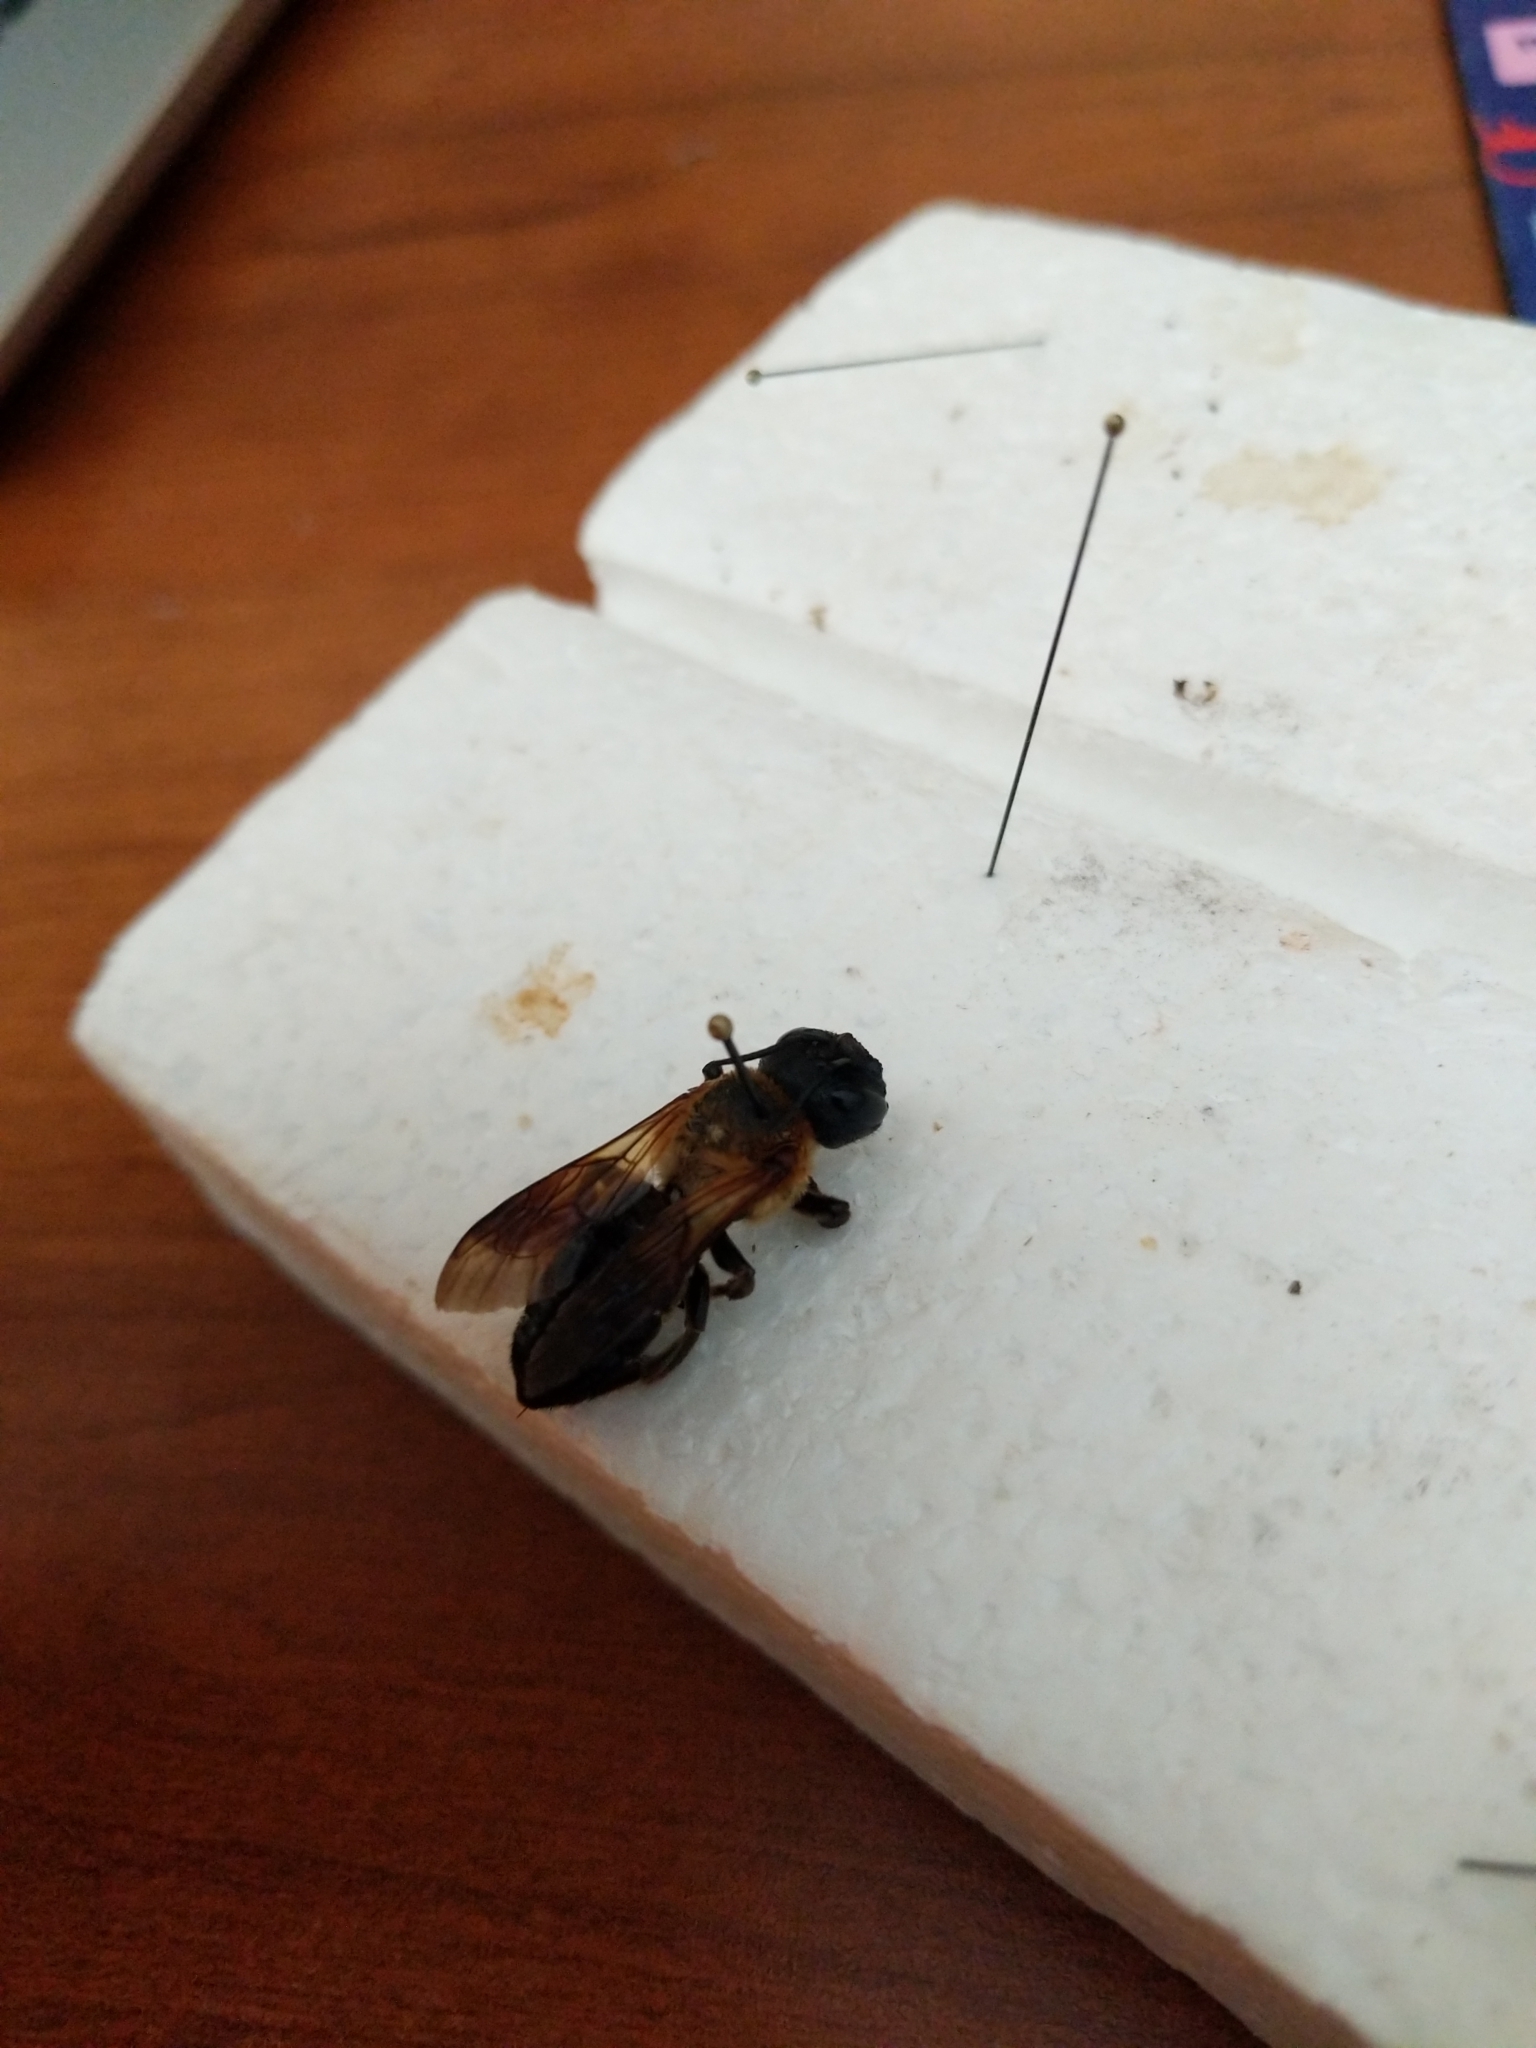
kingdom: Animalia
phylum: Arthropoda
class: Insecta
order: Hymenoptera
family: Megachilidae
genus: Megachile
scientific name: Megachile sculpturalis
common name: Sculptured resin bee
